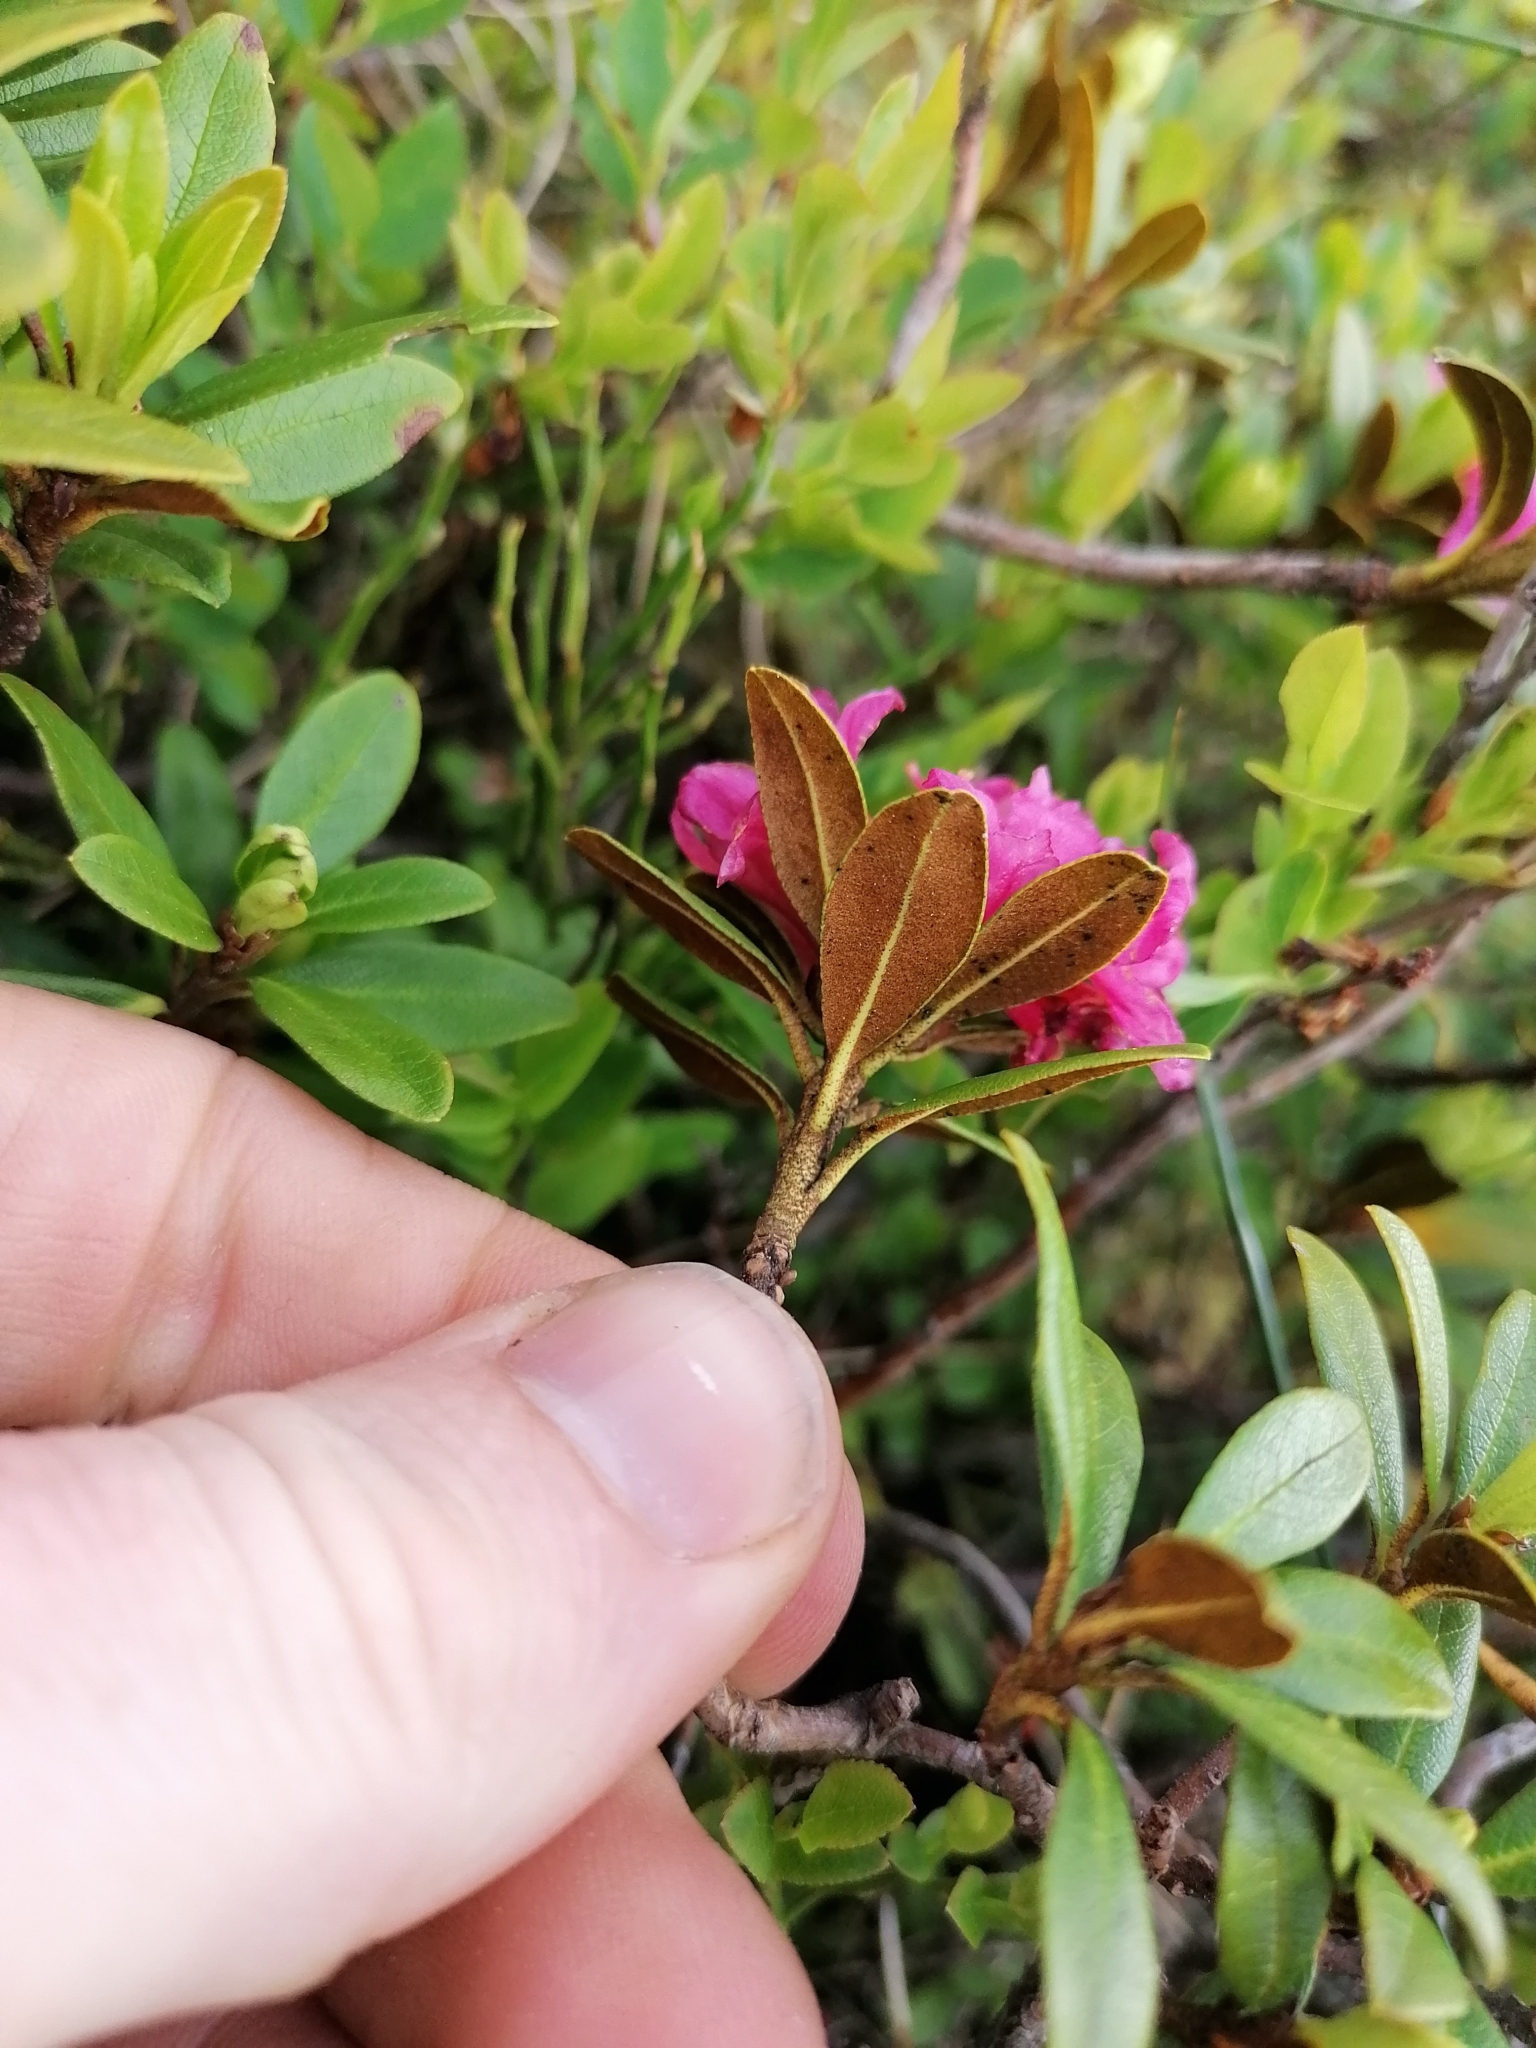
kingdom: Plantae
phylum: Tracheophyta
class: Magnoliopsida
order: Ericales
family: Ericaceae
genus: Rhododendron
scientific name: Rhododendron ferrugineum
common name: Alpenrose
